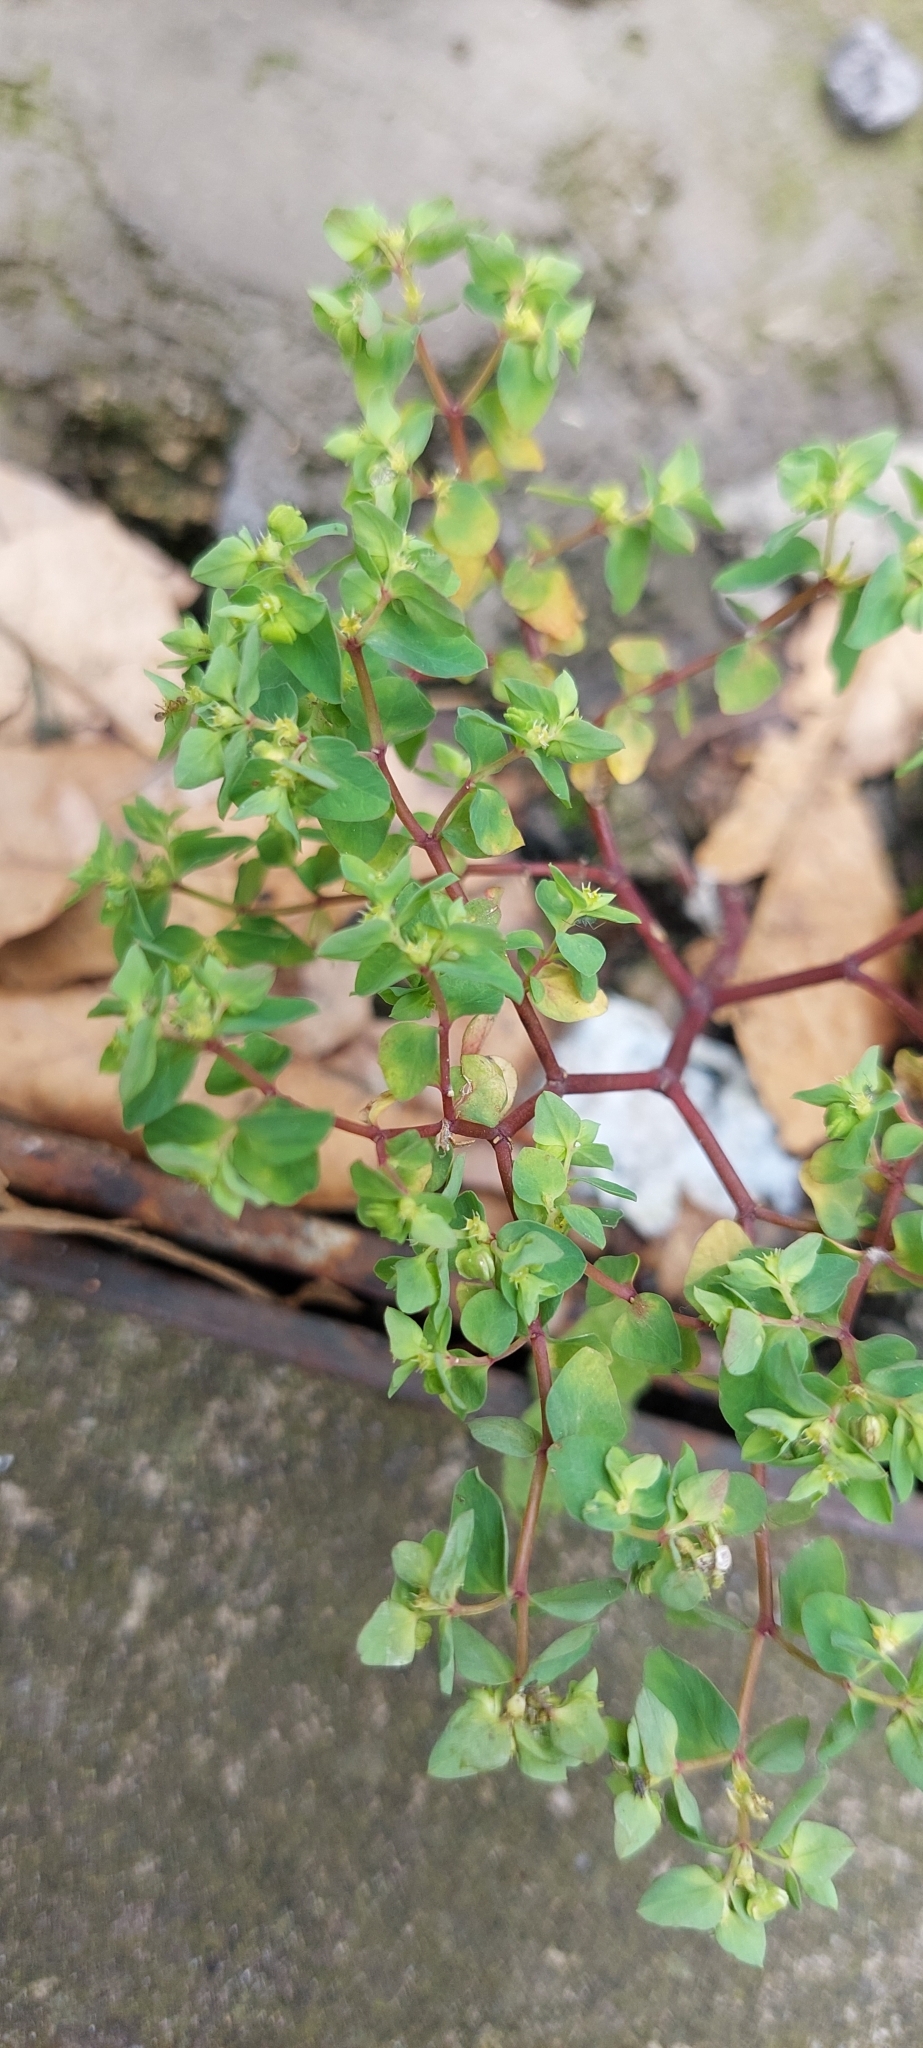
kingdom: Plantae
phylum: Tracheophyta
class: Magnoliopsida
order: Malpighiales
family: Euphorbiaceae
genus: Euphorbia
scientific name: Euphorbia peplus
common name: Petty spurge
